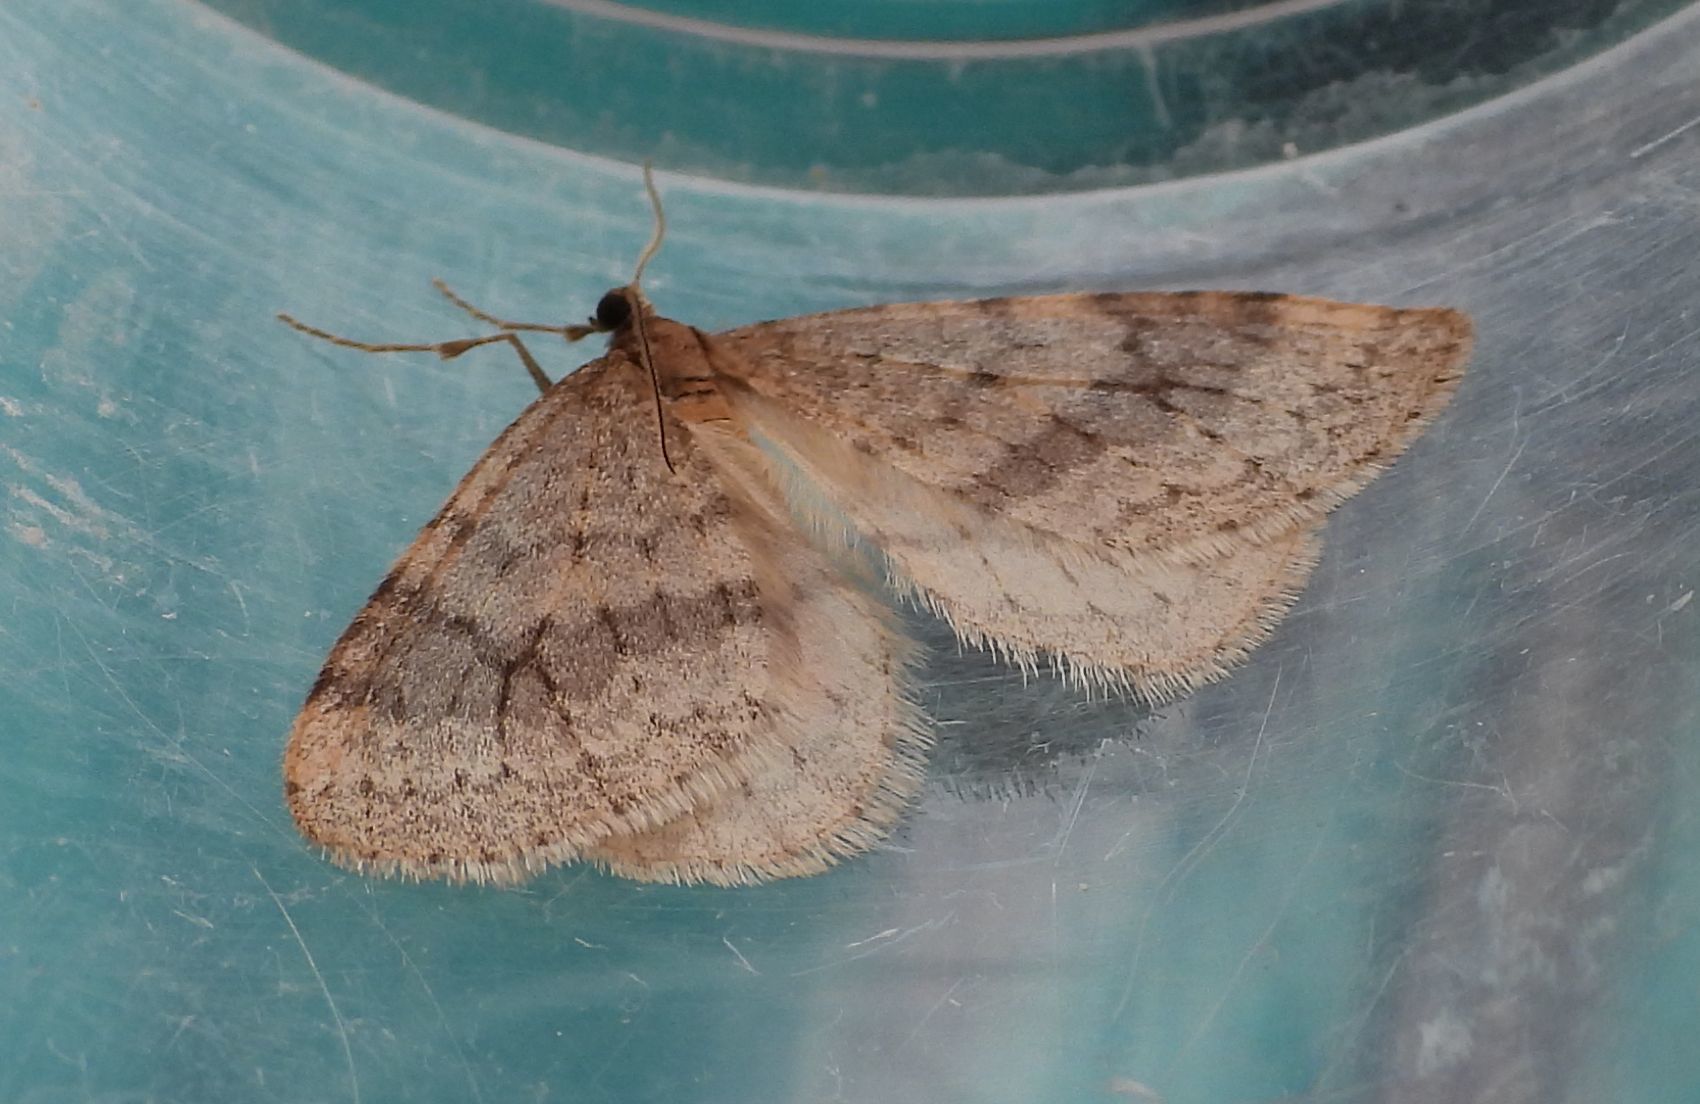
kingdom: Animalia
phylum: Arthropoda
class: Insecta
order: Lepidoptera
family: Geometridae
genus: Operophtera
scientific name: Operophtera bruceata
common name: Bruce spanworm
